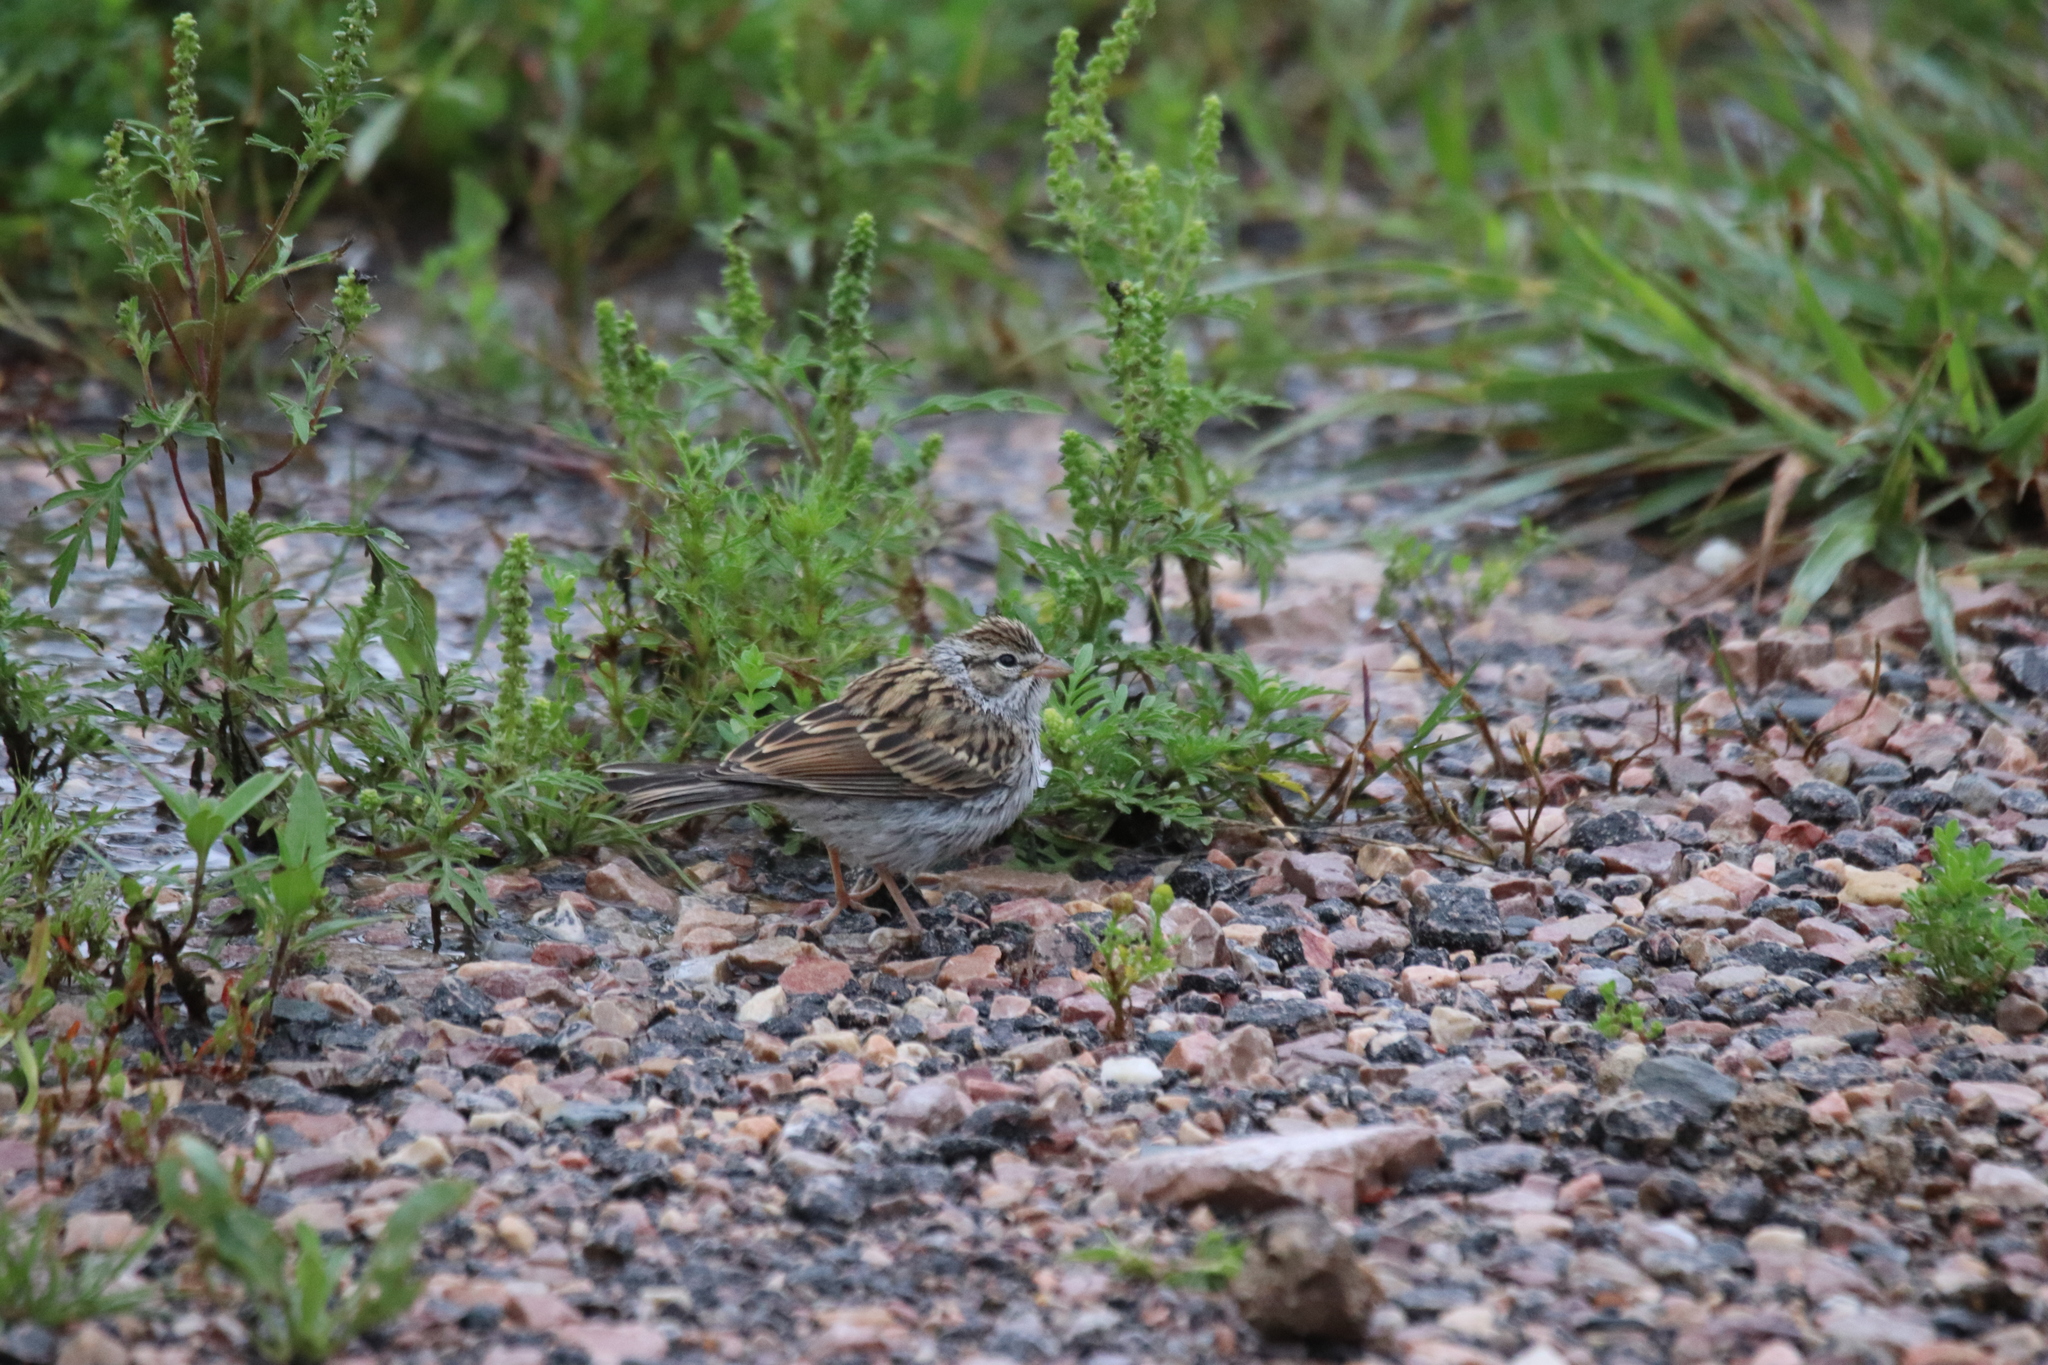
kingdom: Animalia
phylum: Chordata
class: Aves
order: Passeriformes
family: Passerellidae
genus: Spizella
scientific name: Spizella passerina
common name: Chipping sparrow
